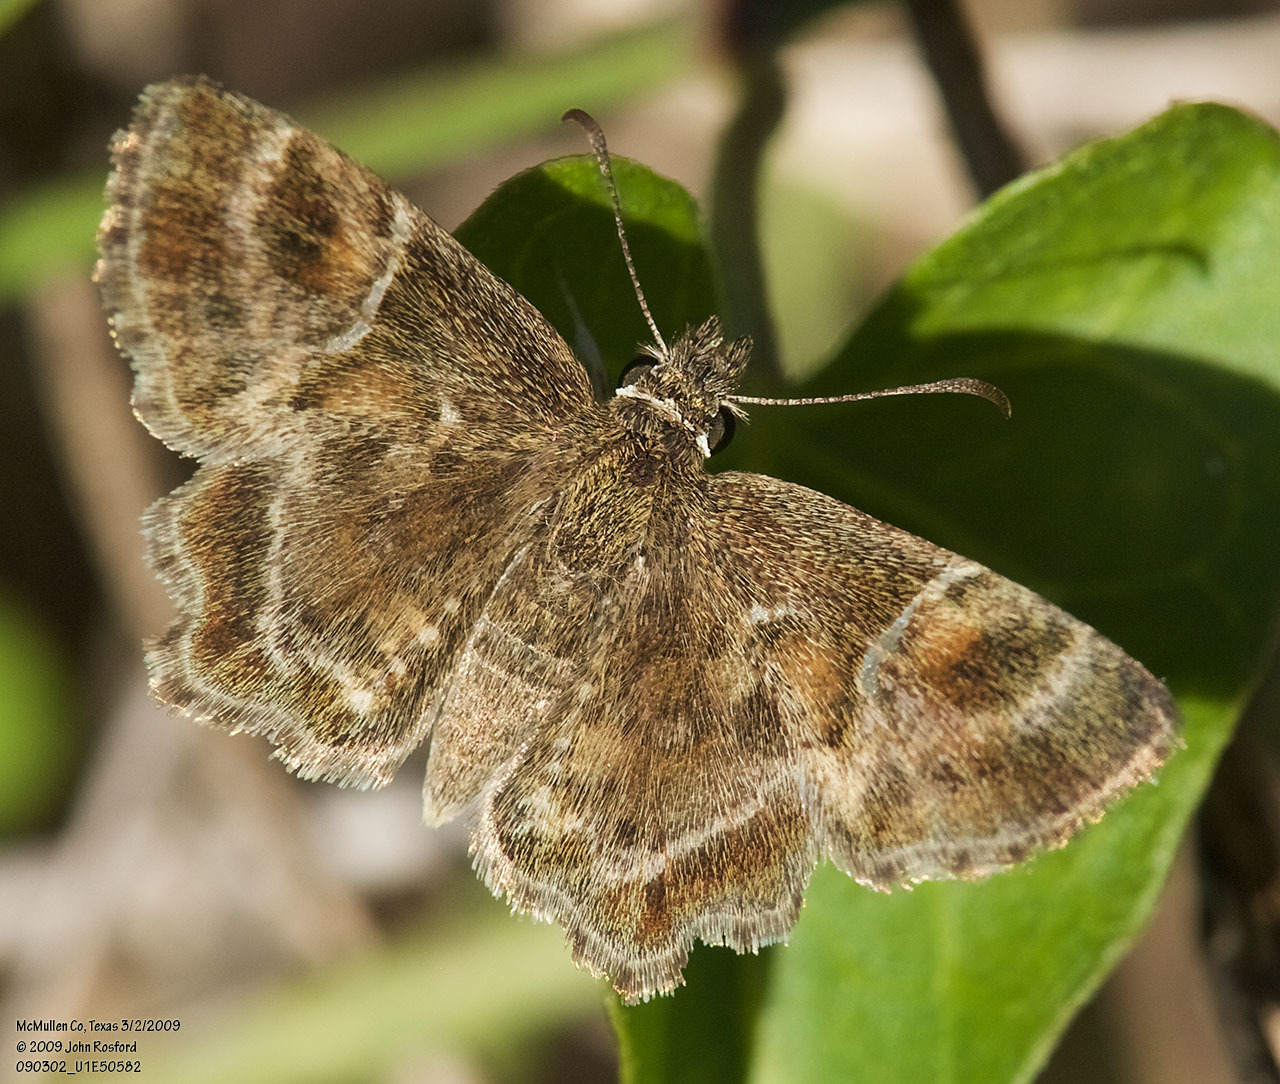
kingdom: Animalia
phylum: Arthropoda
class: Insecta
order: Lepidoptera
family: Hesperiidae
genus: Systasea
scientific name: Systasea pulverulenta
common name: Texas powdered skipper
